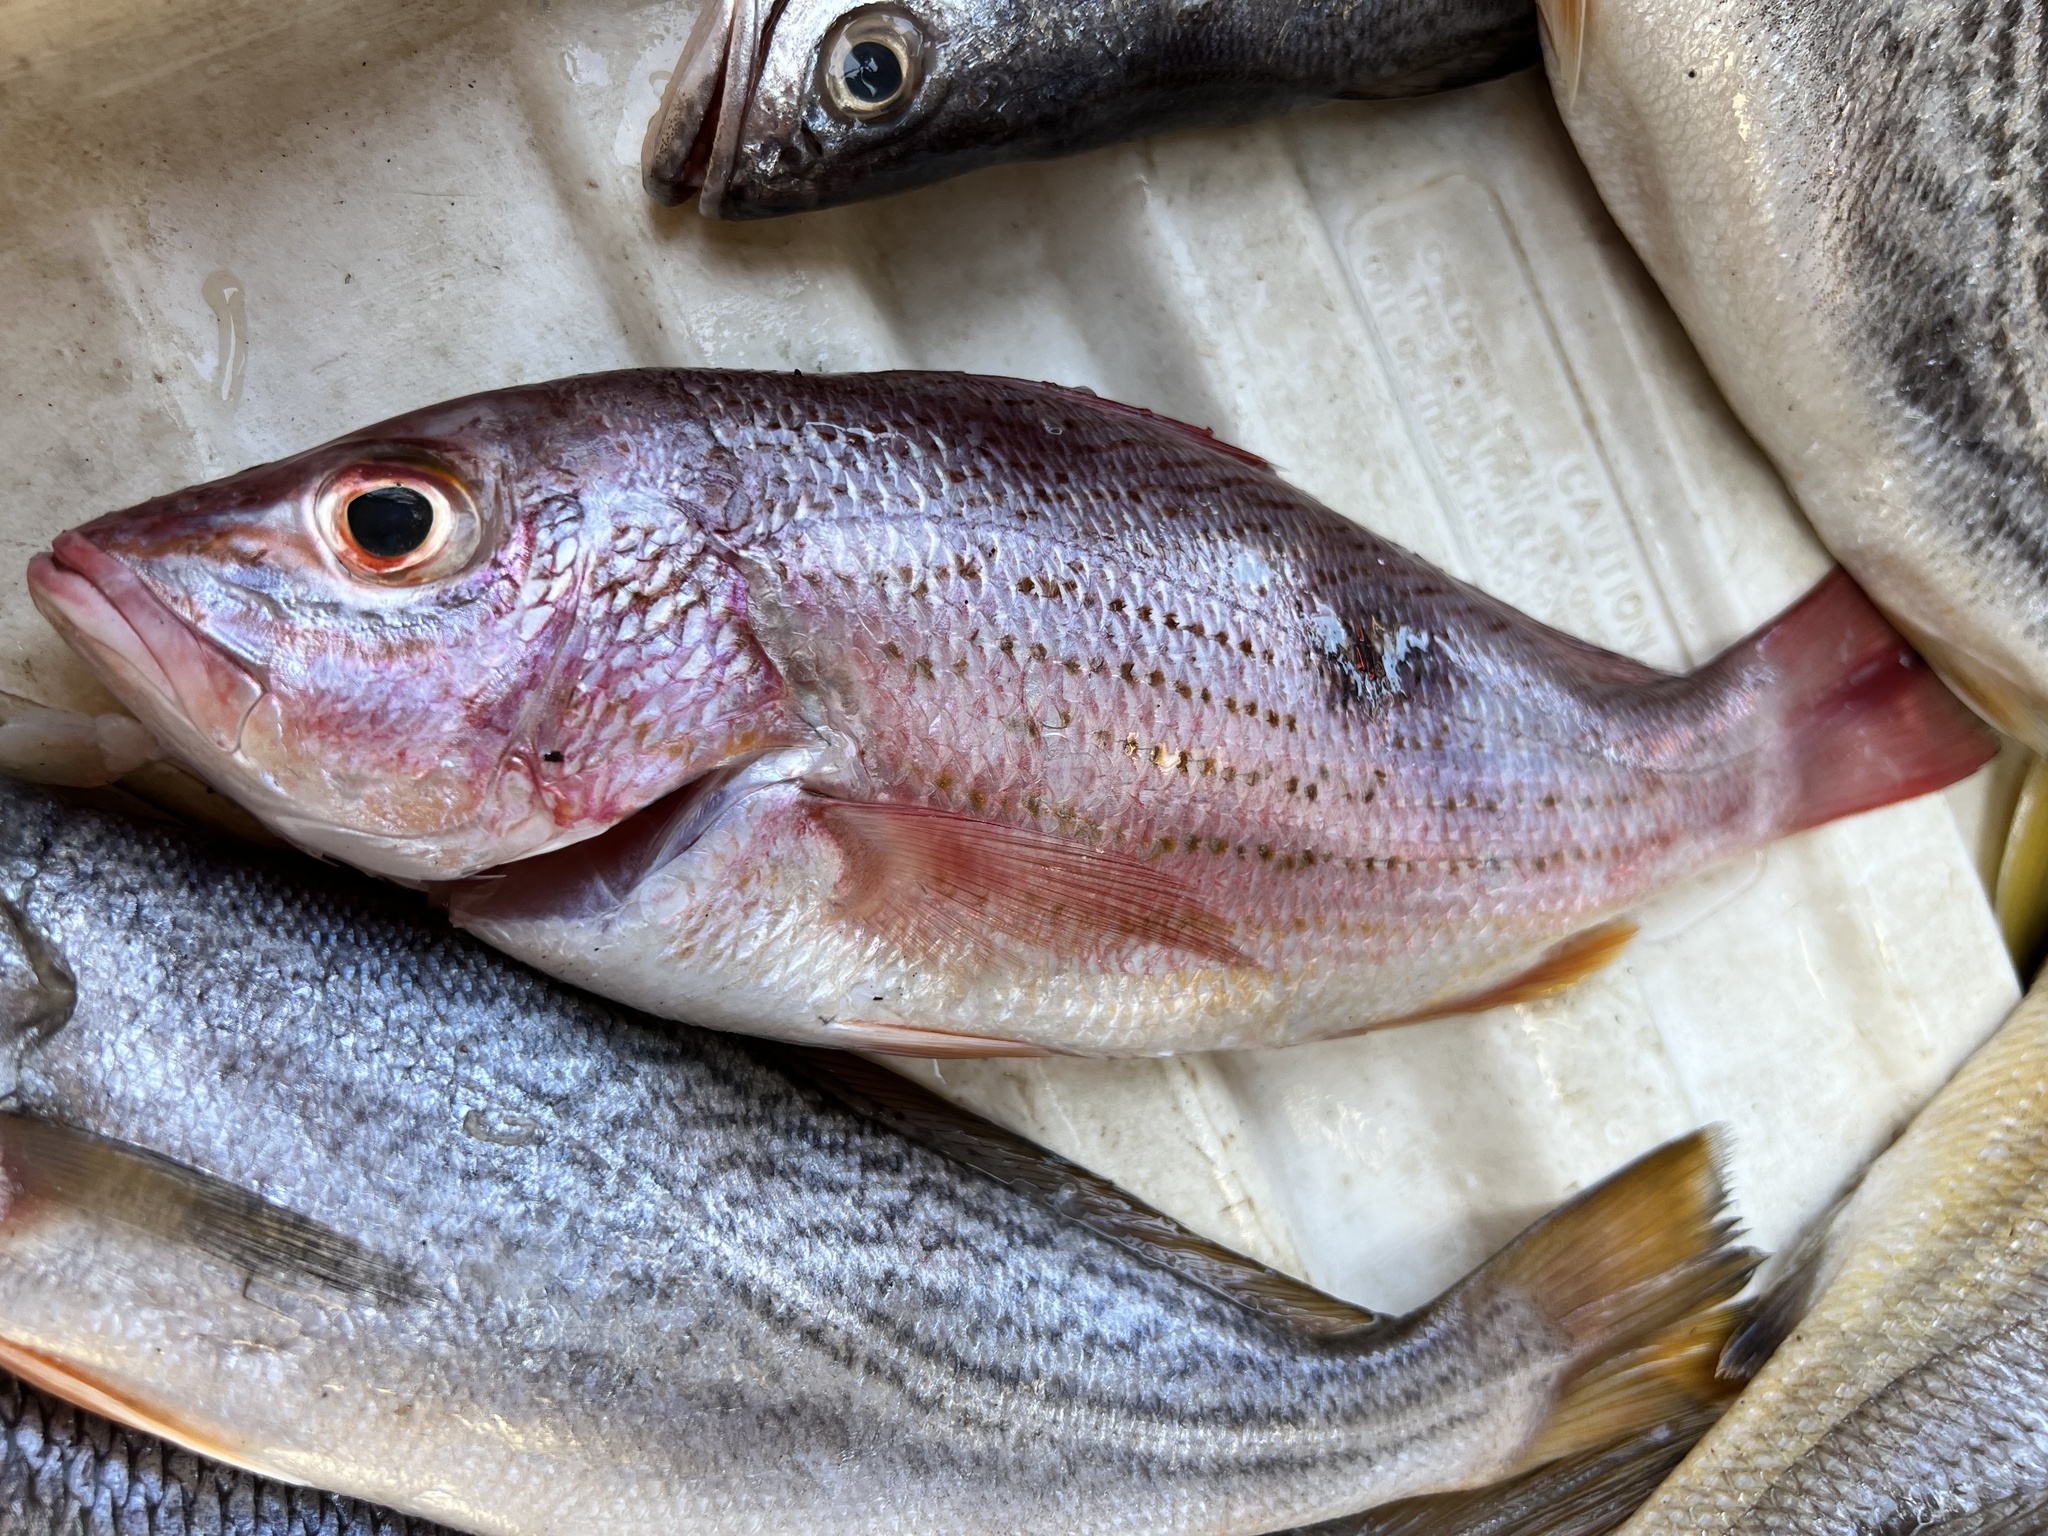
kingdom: Animalia
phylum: Chordata
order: Perciformes
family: Lutjanidae
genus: Lutjanus
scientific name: Lutjanus guttatus
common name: Spotted rose snapper
